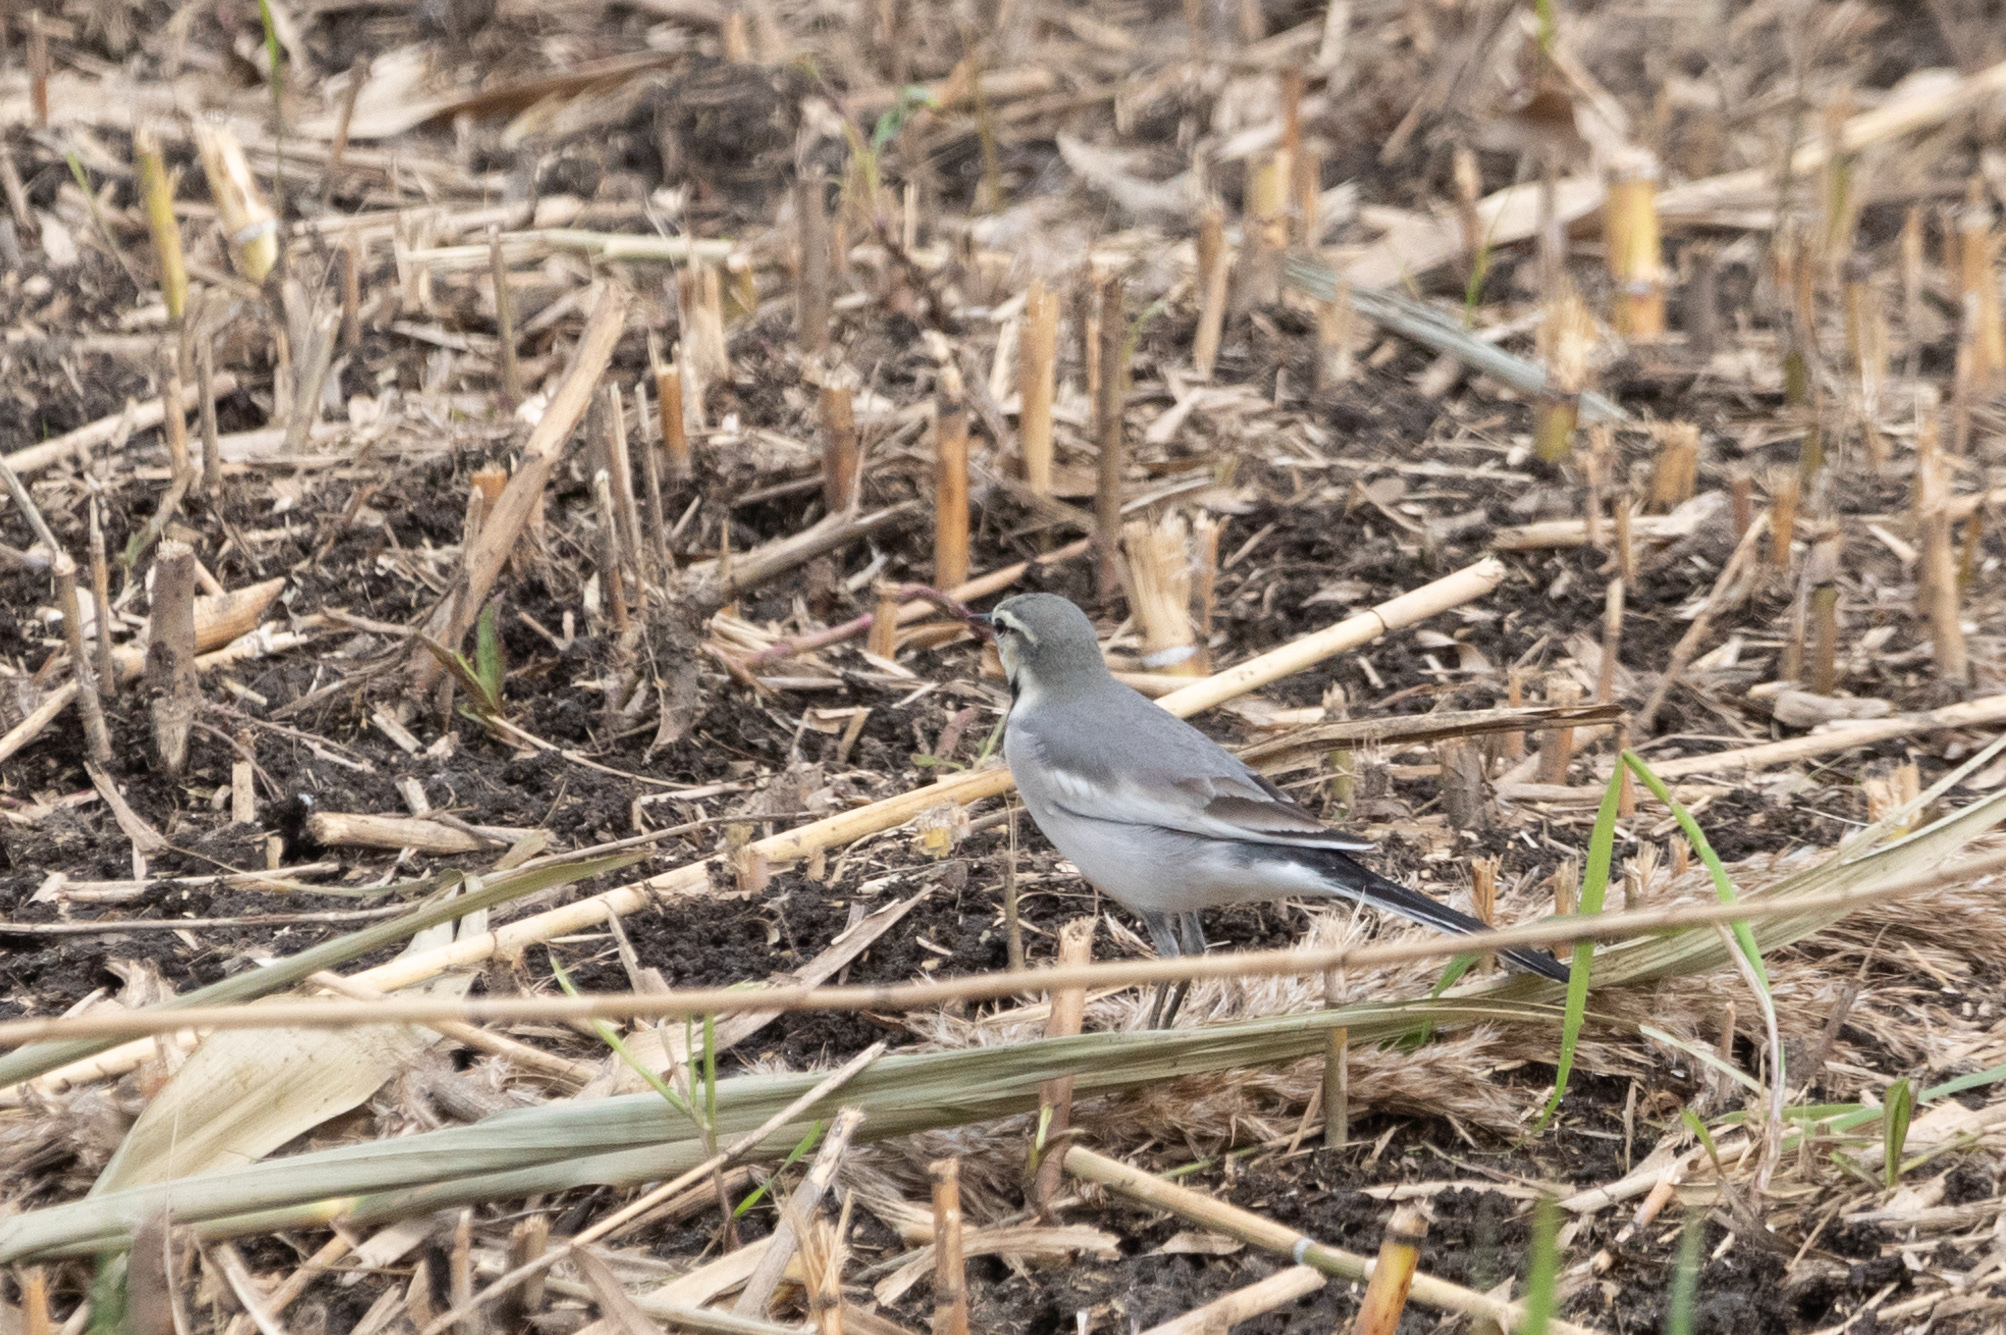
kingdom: Animalia
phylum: Chordata
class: Aves
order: Passeriformes
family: Motacillidae
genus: Motacilla
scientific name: Motacilla alba
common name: White wagtail
